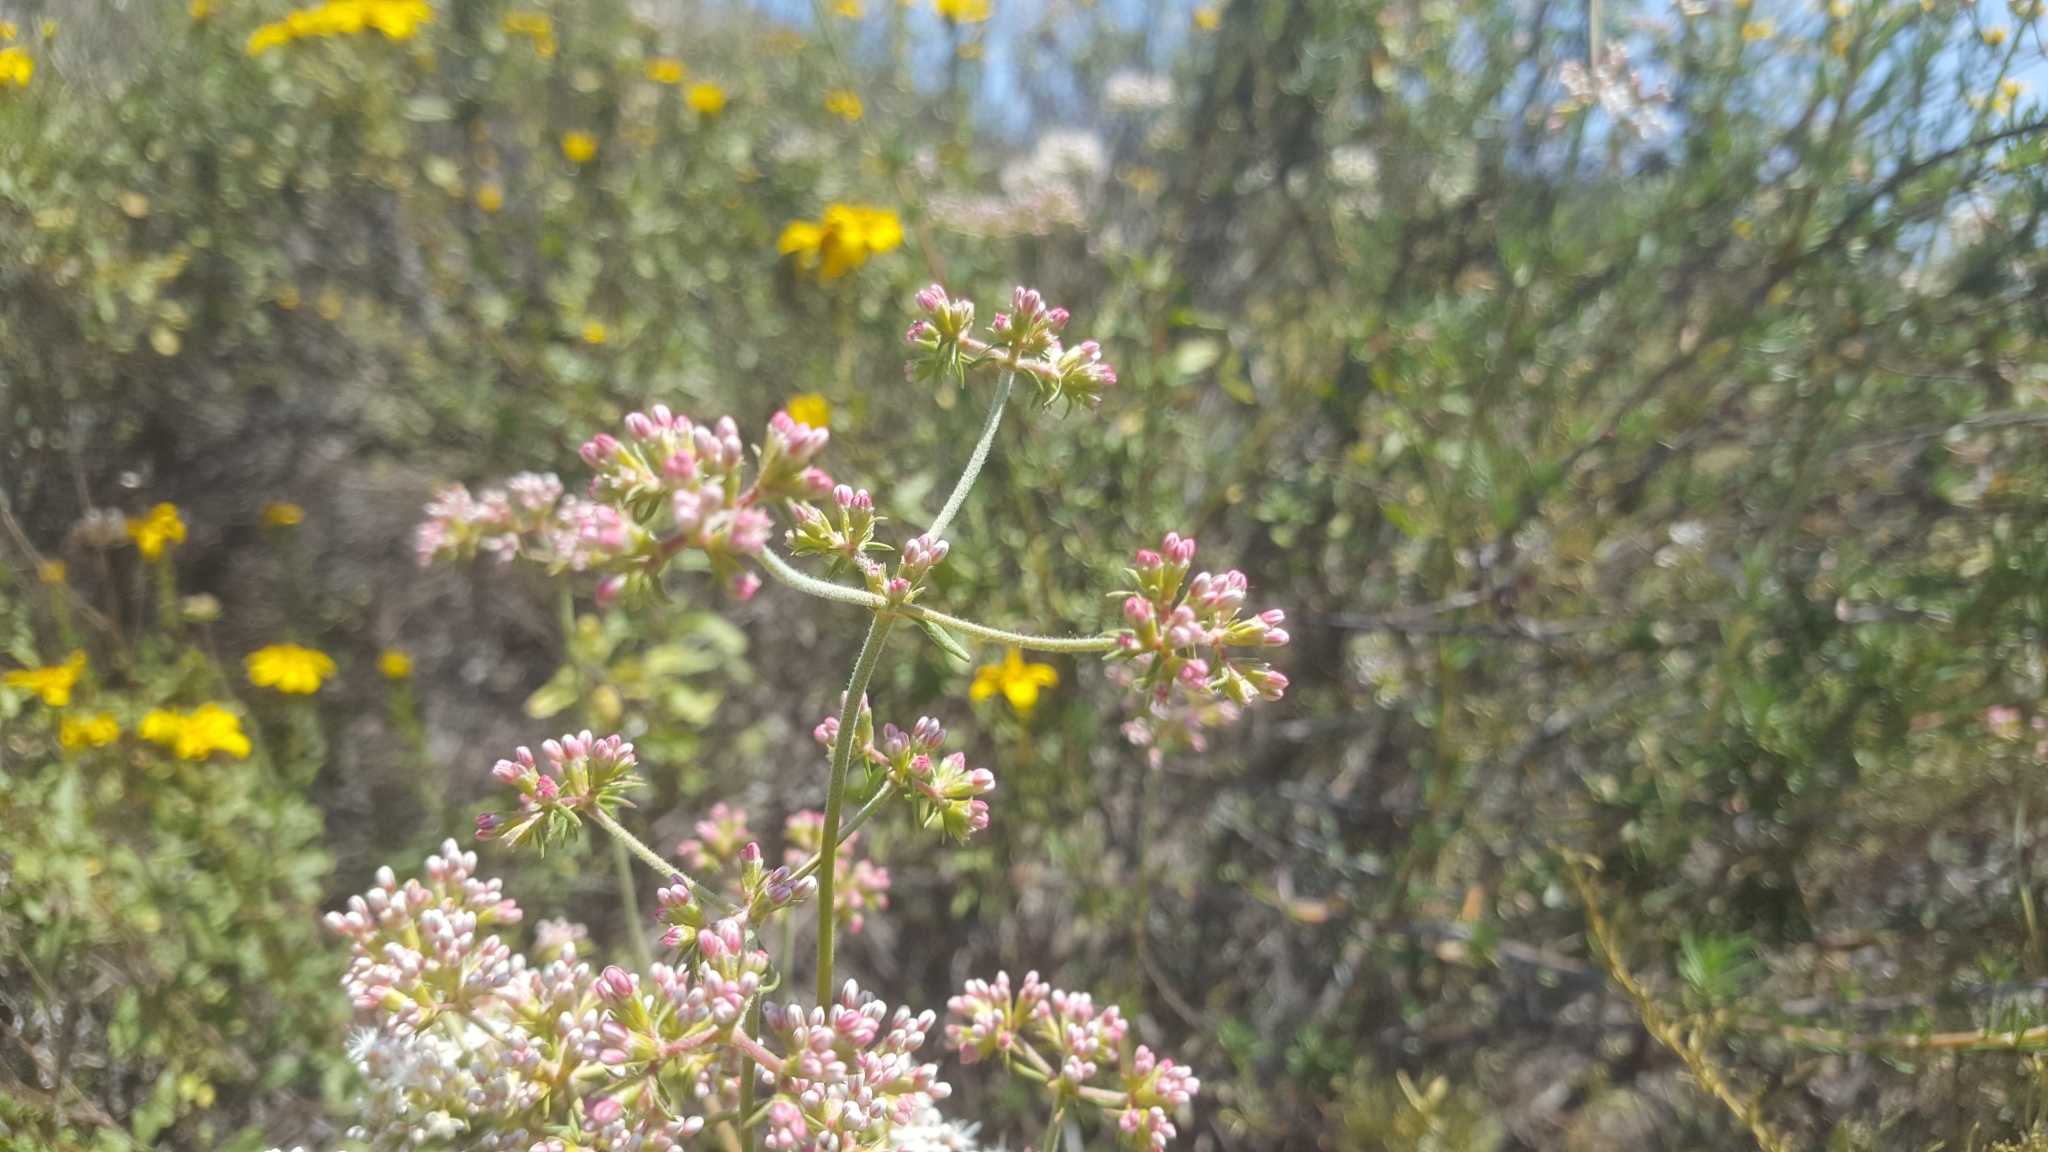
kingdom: Plantae
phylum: Tracheophyta
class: Magnoliopsida
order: Caryophyllales
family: Polygonaceae
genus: Eriogonum
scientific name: Eriogonum fasciculatum
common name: California wild buckwheat
